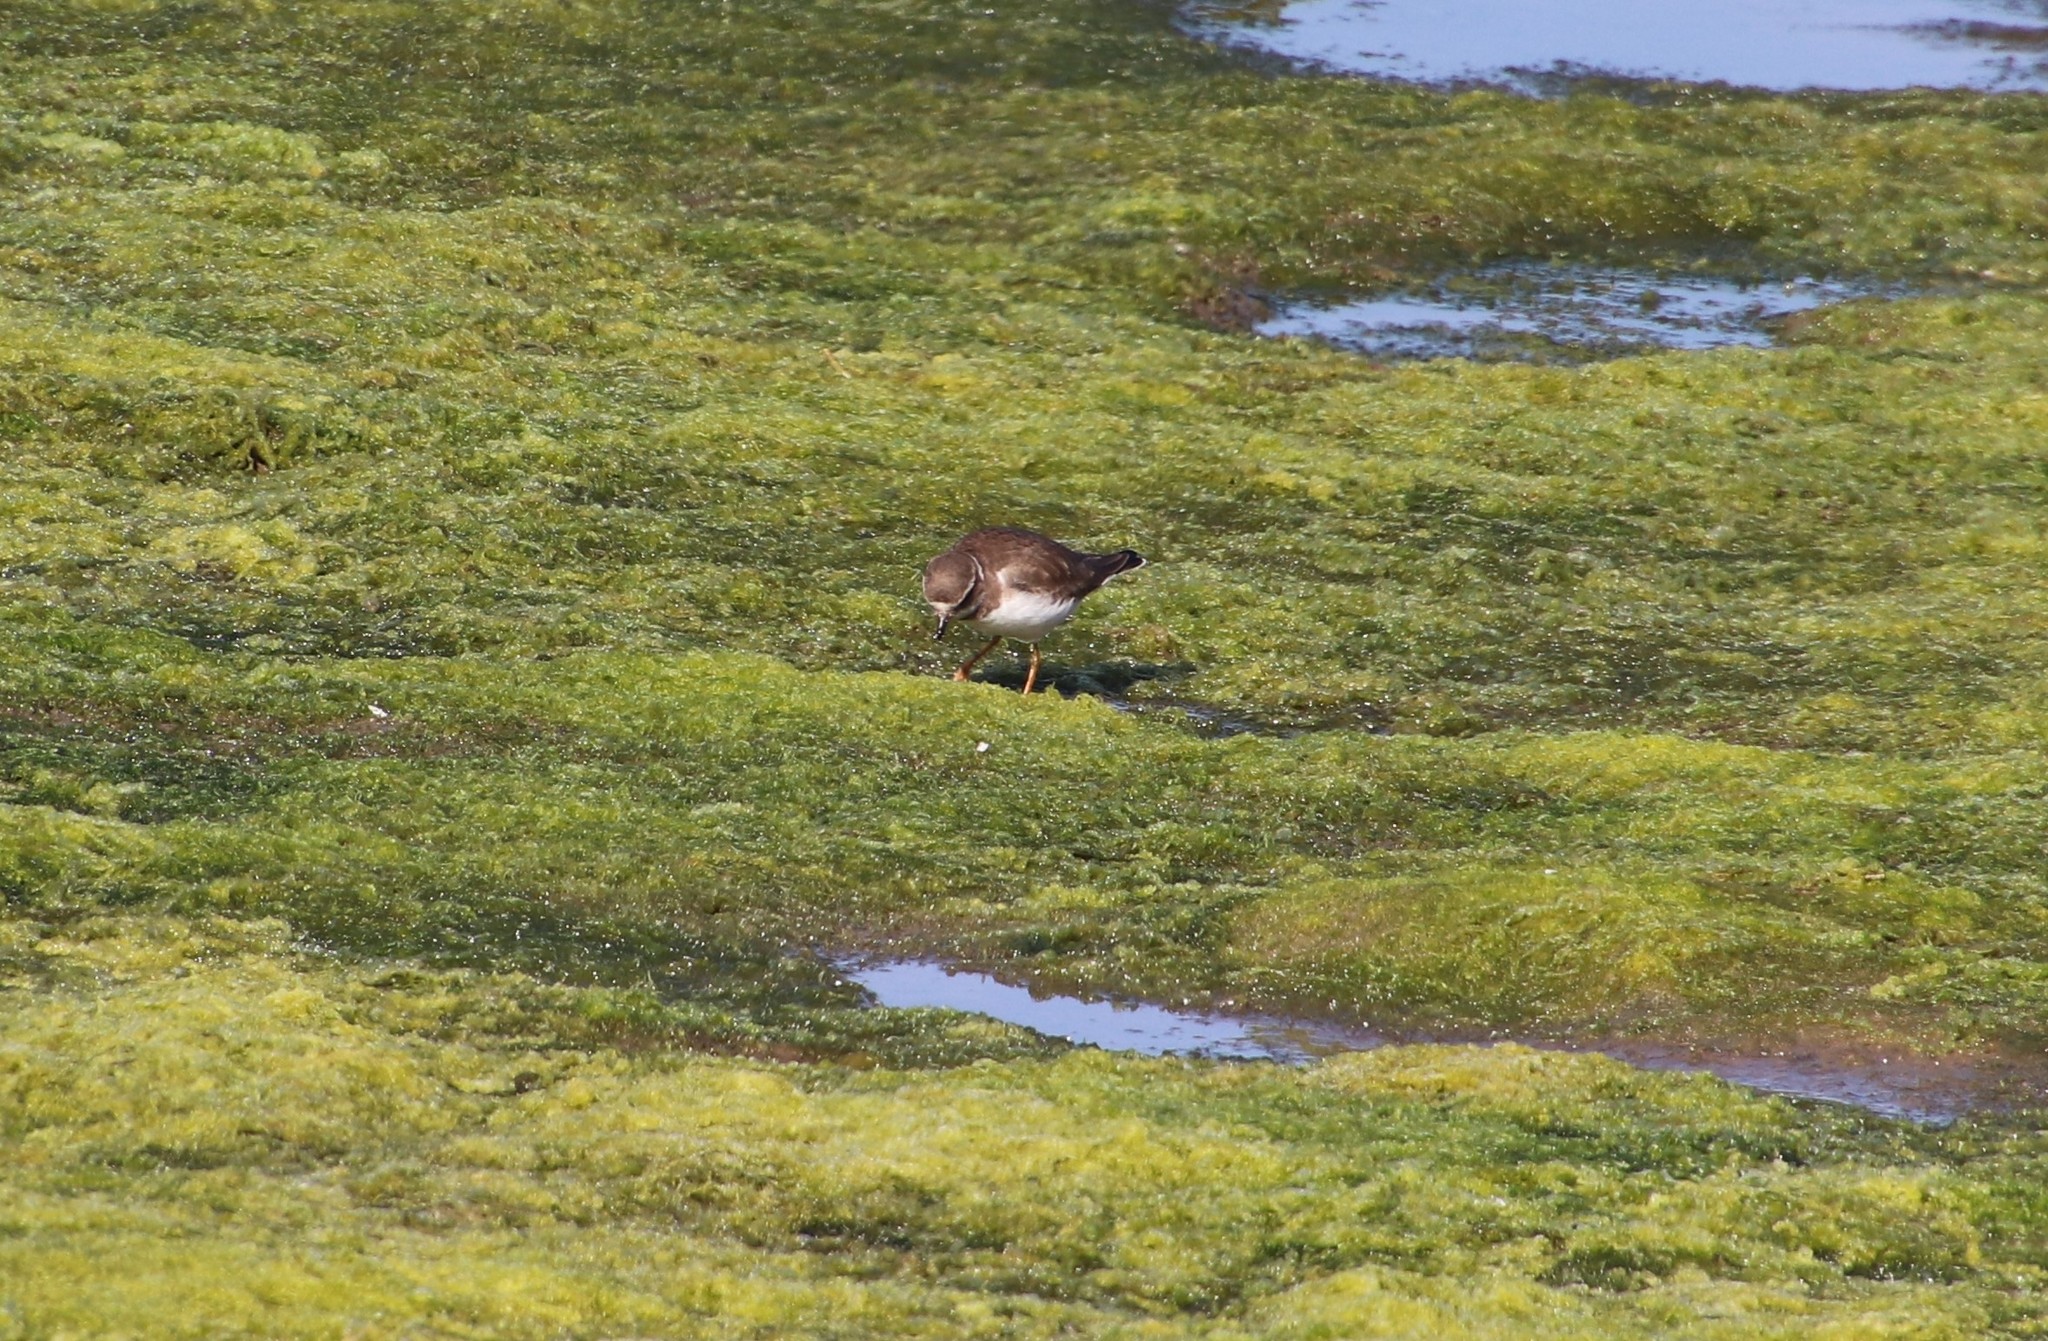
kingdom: Animalia
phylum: Chordata
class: Aves
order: Charadriiformes
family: Charadriidae
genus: Charadrius
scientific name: Charadrius semipalmatus
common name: Semipalmated plover
